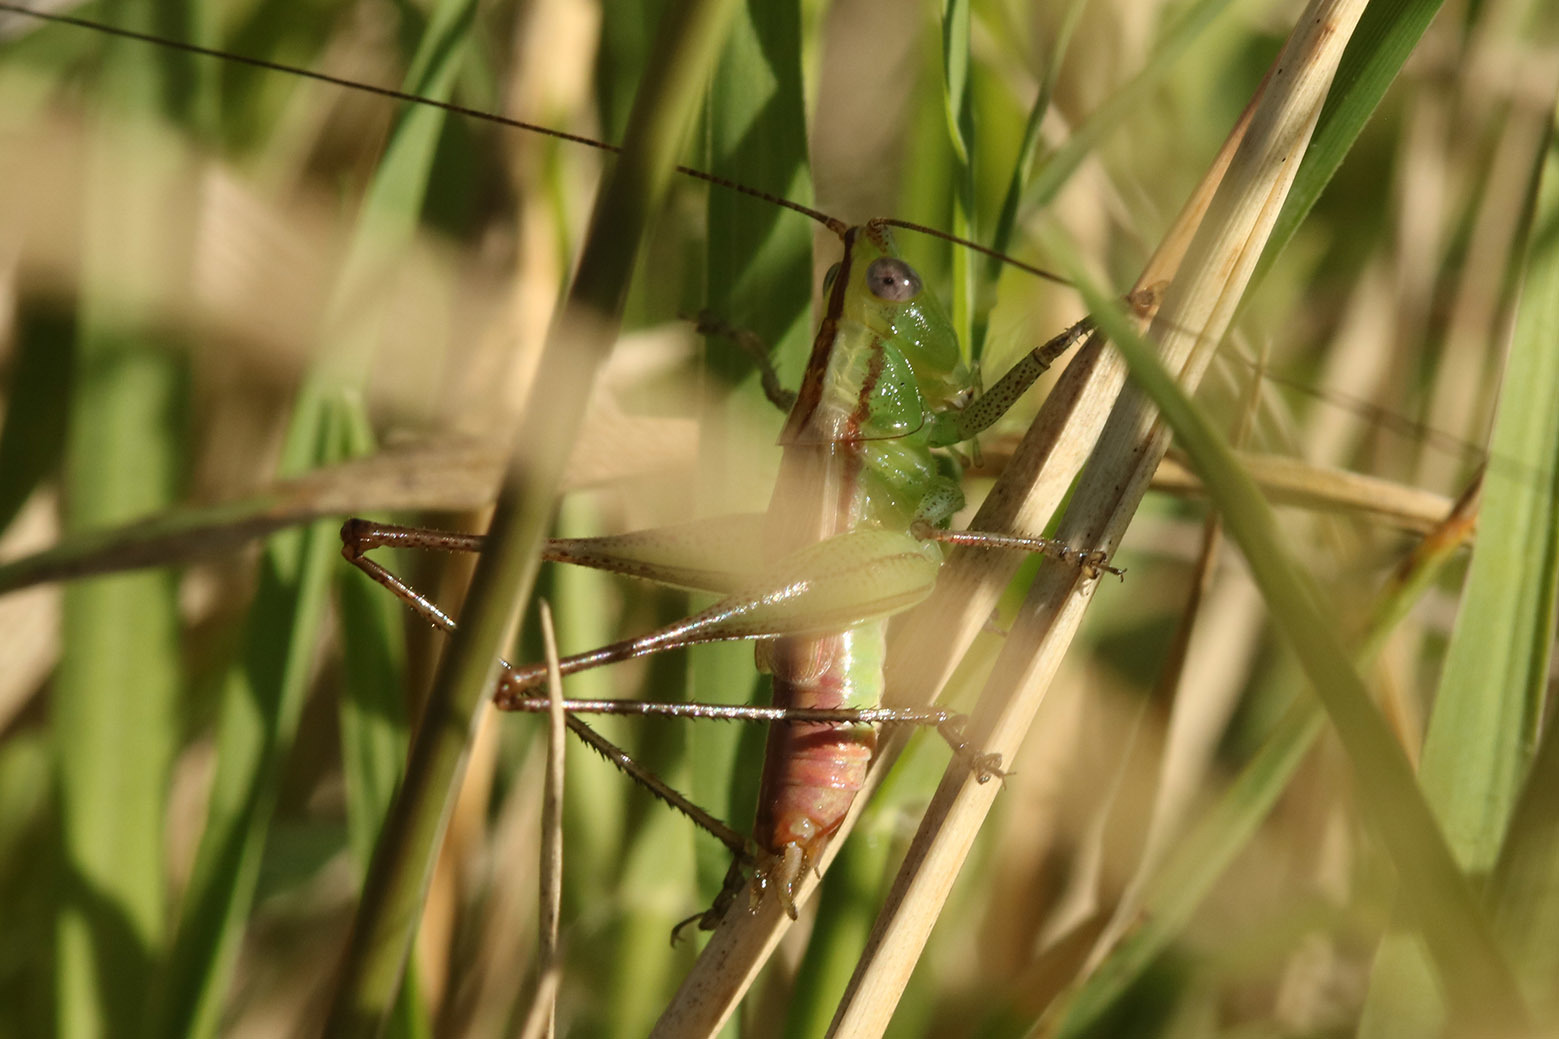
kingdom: Animalia
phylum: Arthropoda
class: Insecta
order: Orthoptera
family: Tettigoniidae
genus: Conocephalus
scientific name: Conocephalus doryphorus
